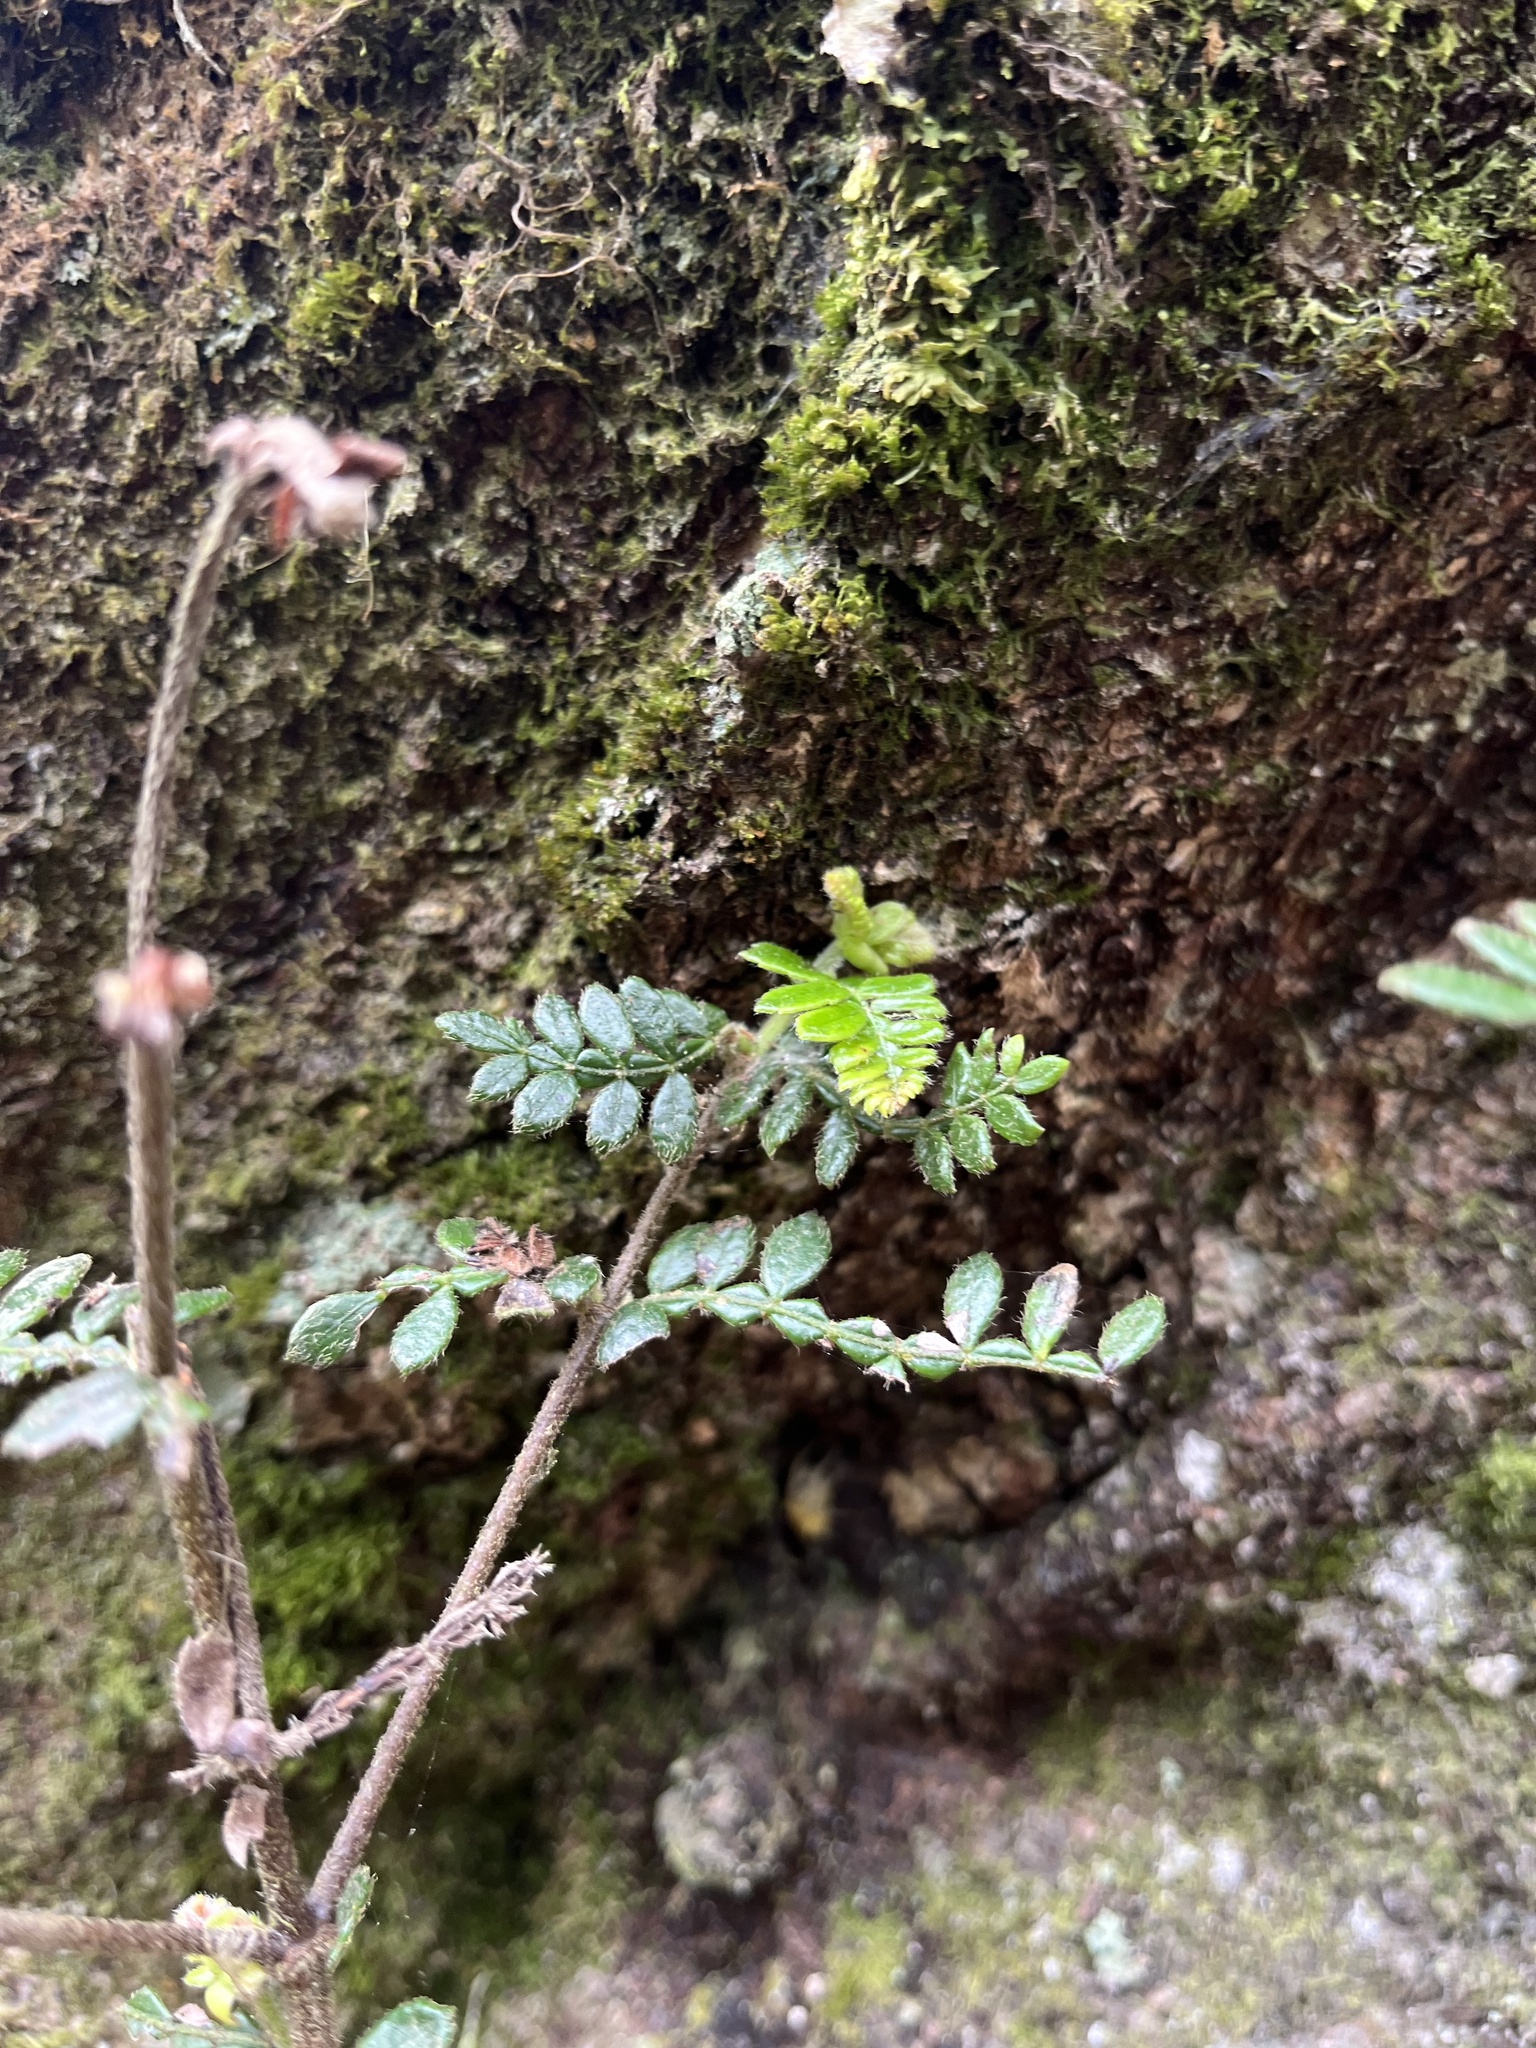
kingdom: Plantae
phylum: Tracheophyta
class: Magnoliopsida
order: Oxalidales
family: Cunoniaceae
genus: Weinmannia
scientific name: Weinmannia tomentosa
